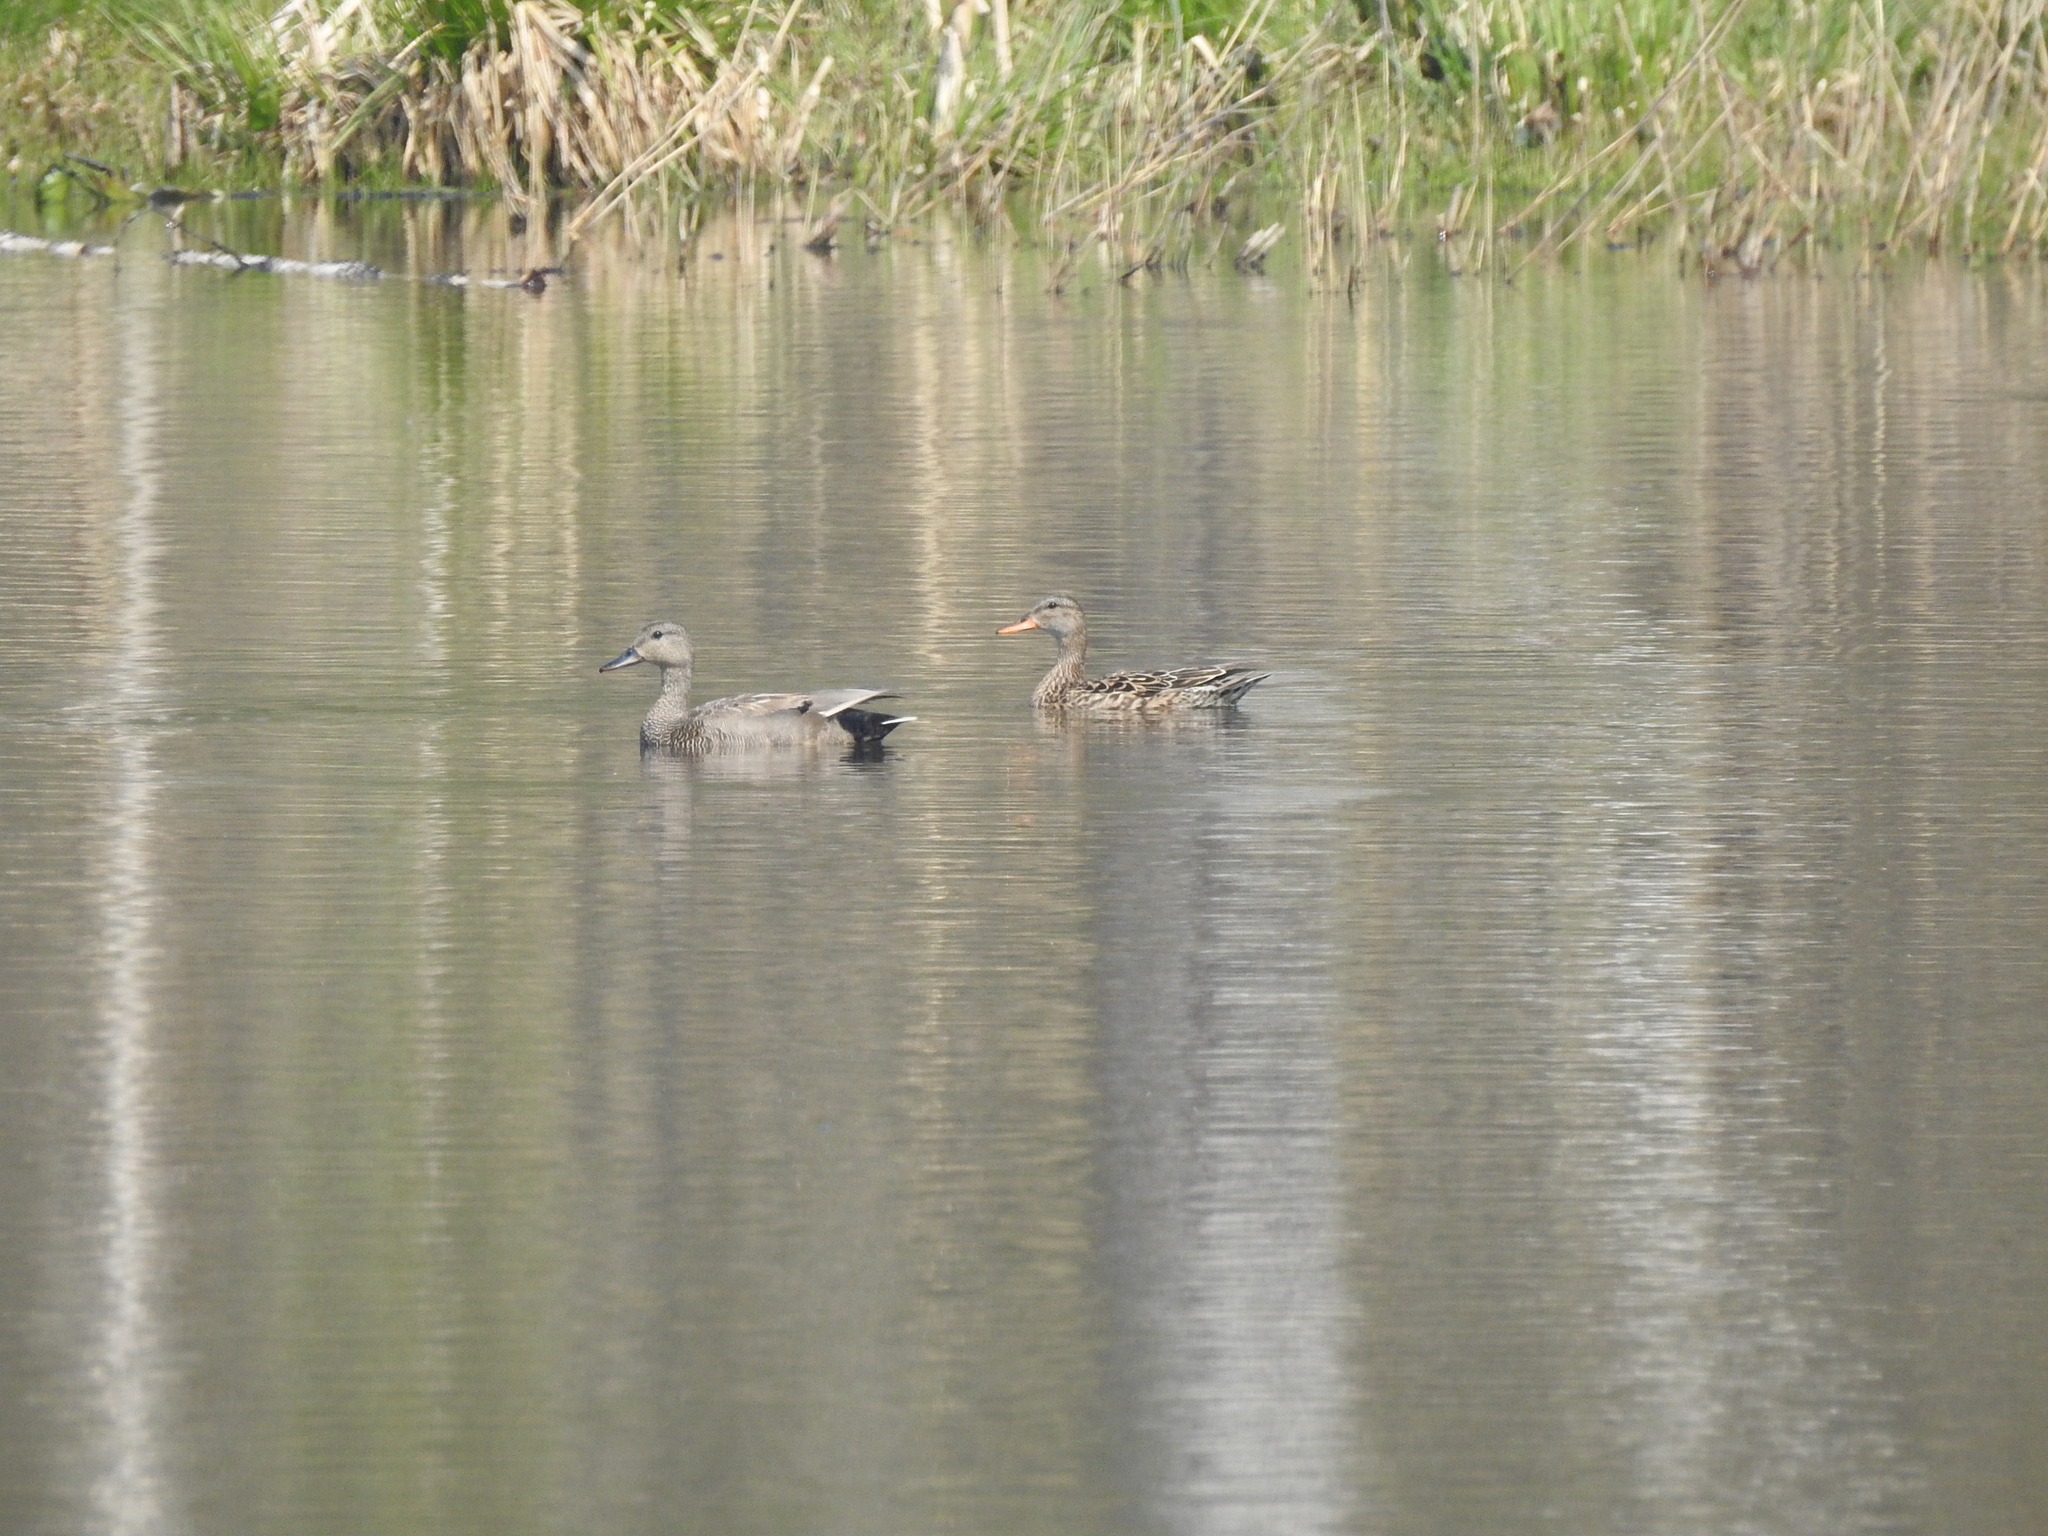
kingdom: Animalia
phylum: Chordata
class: Aves
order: Anseriformes
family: Anatidae
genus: Mareca
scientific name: Mareca strepera
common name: Gadwall
